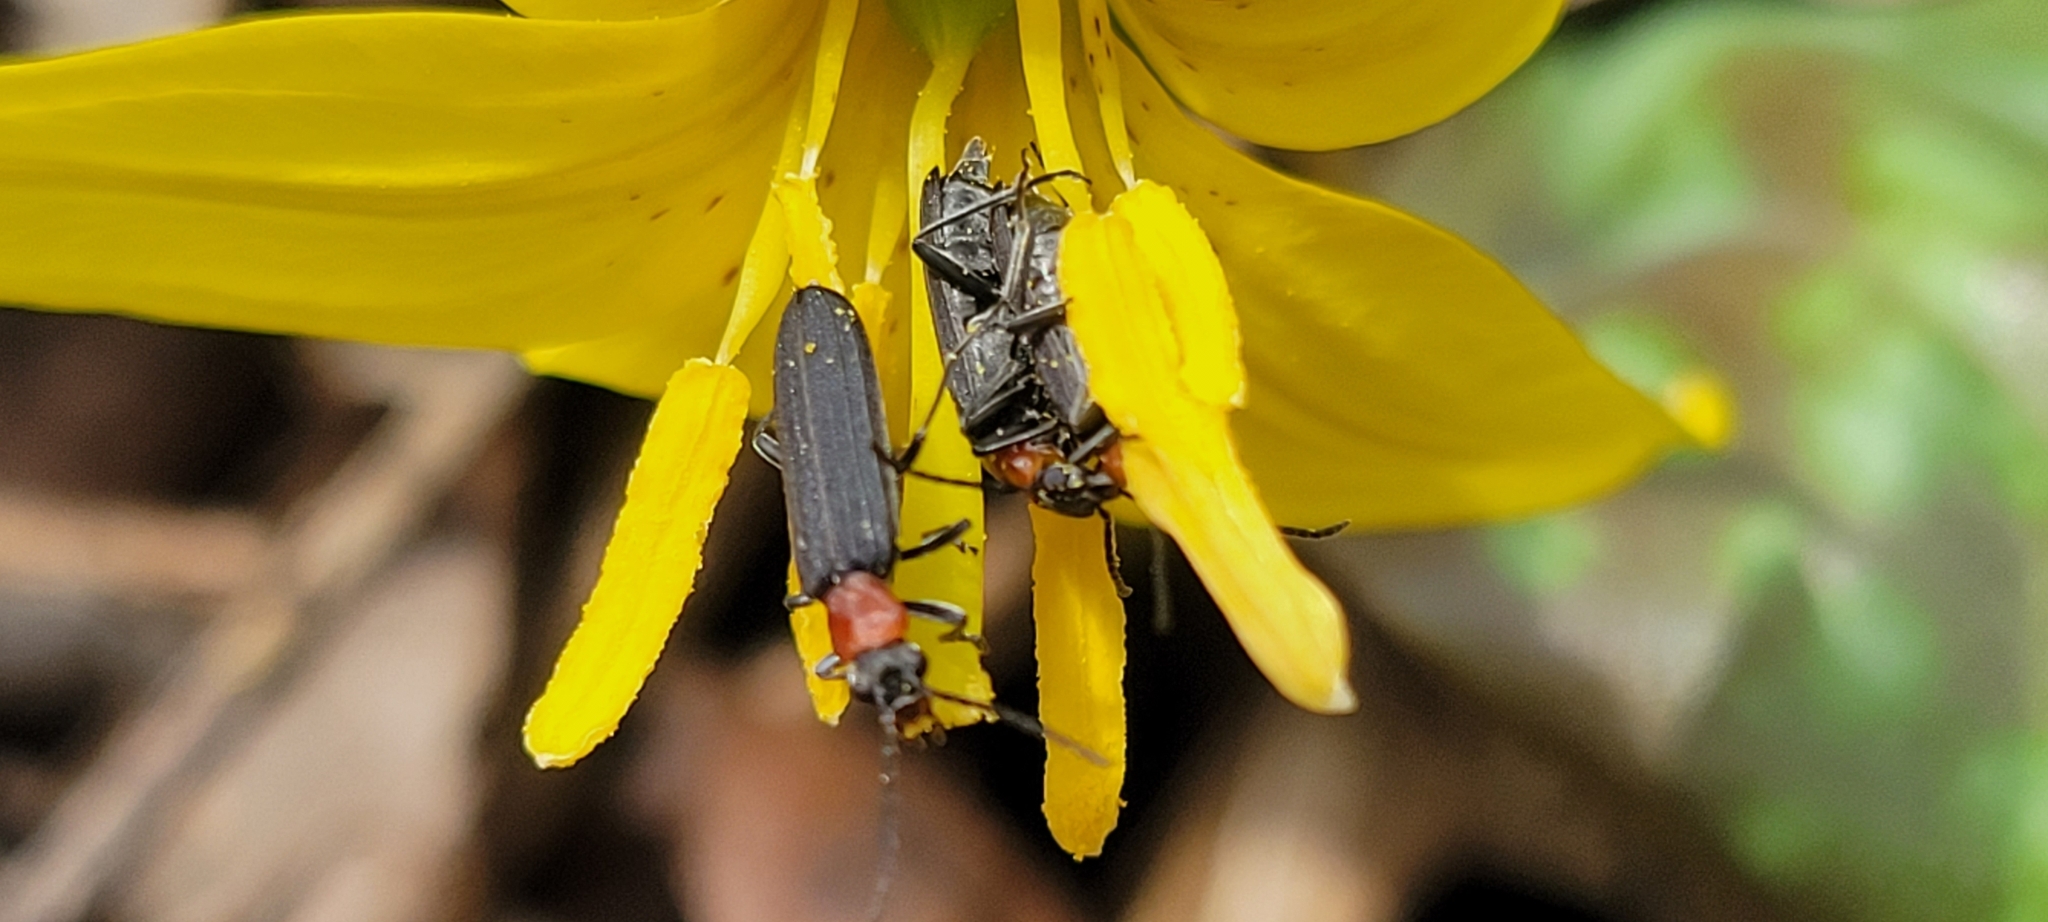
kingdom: Animalia
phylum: Arthropoda
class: Insecta
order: Coleoptera
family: Oedemeridae
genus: Ischnomera
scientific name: Ischnomera
